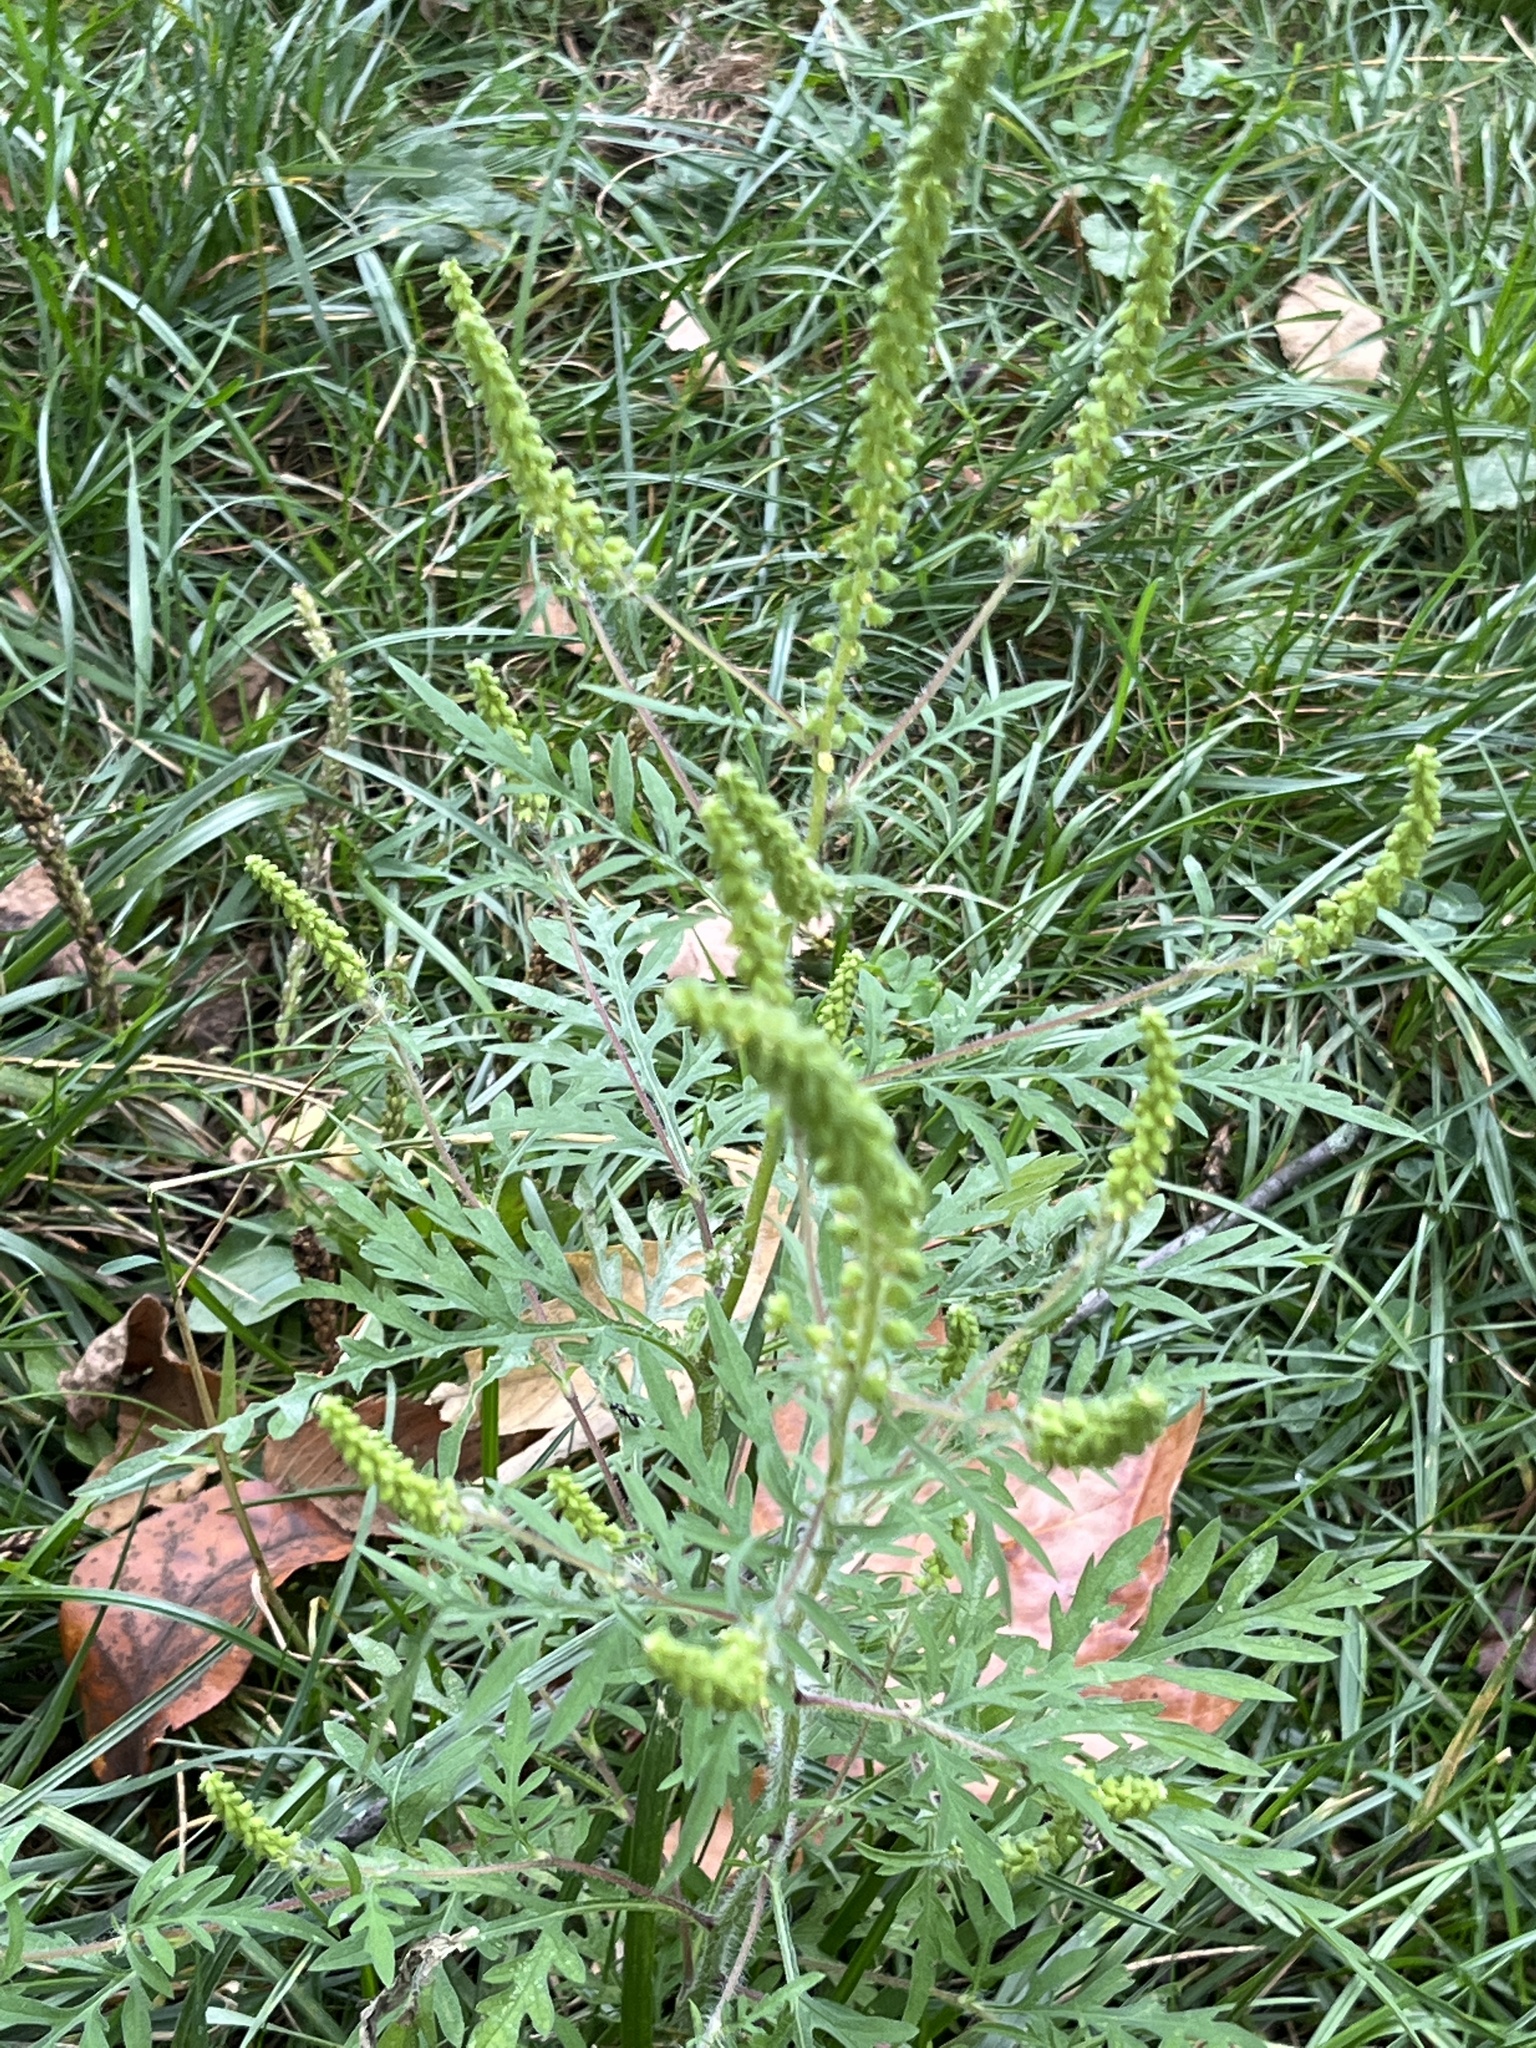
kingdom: Plantae
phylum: Tracheophyta
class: Magnoliopsida
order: Asterales
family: Asteraceae
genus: Ambrosia
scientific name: Ambrosia artemisiifolia
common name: Annual ragweed
